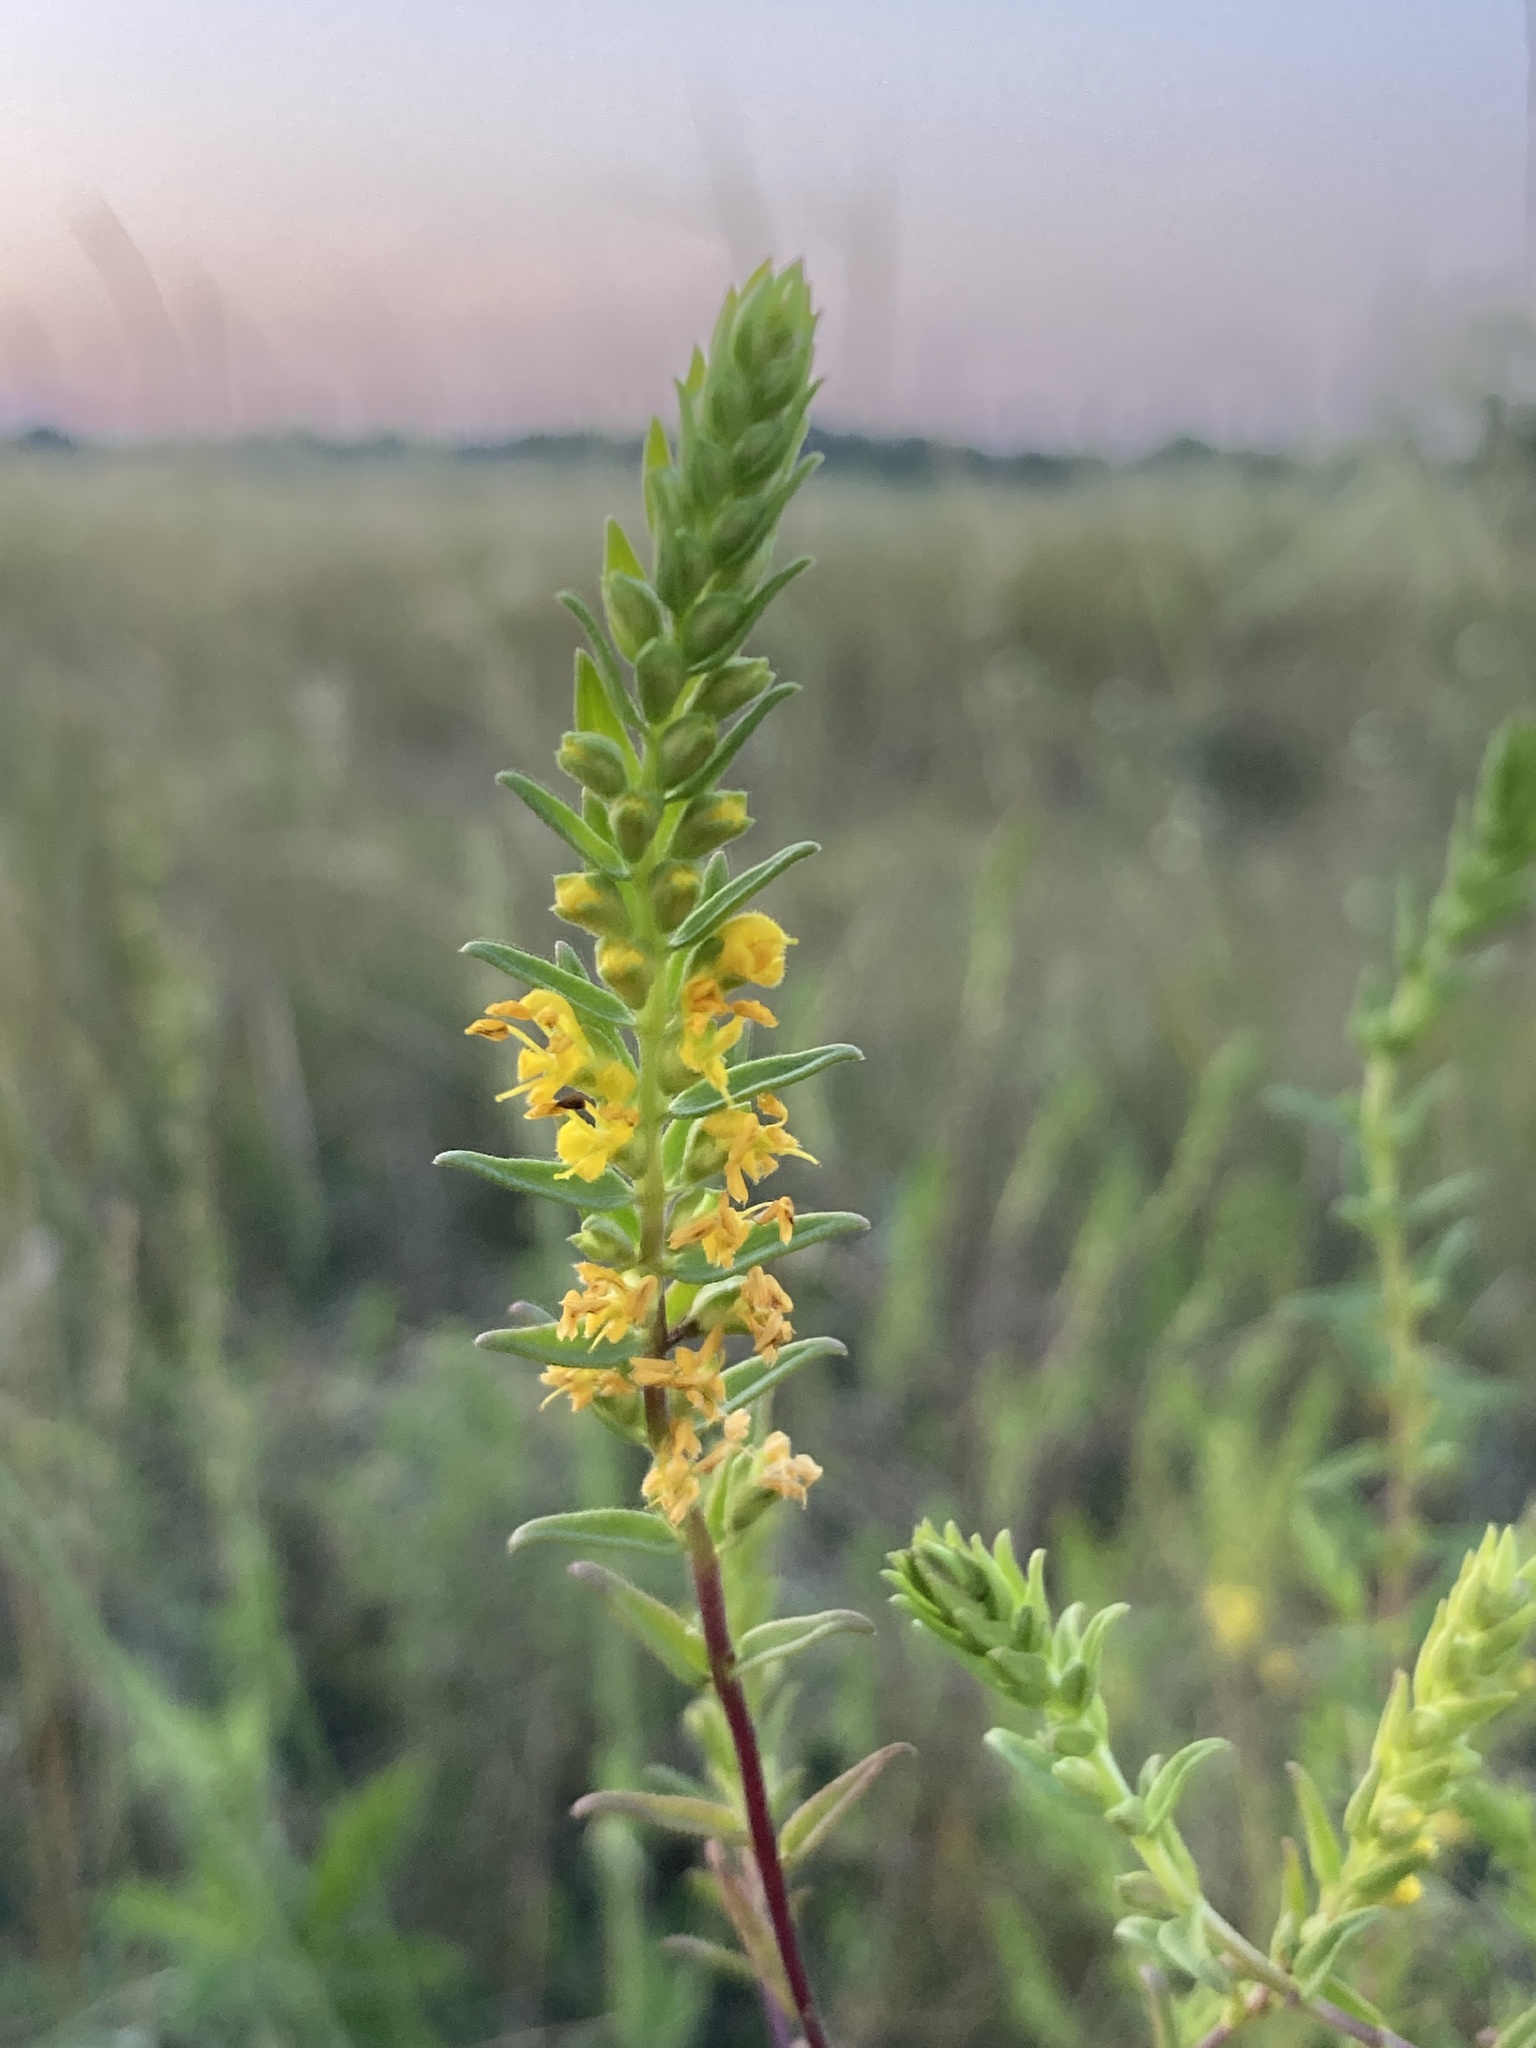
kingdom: Plantae
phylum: Tracheophyta
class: Magnoliopsida
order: Lamiales
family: Orobanchaceae
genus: Odontites
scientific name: Odontites luteus
